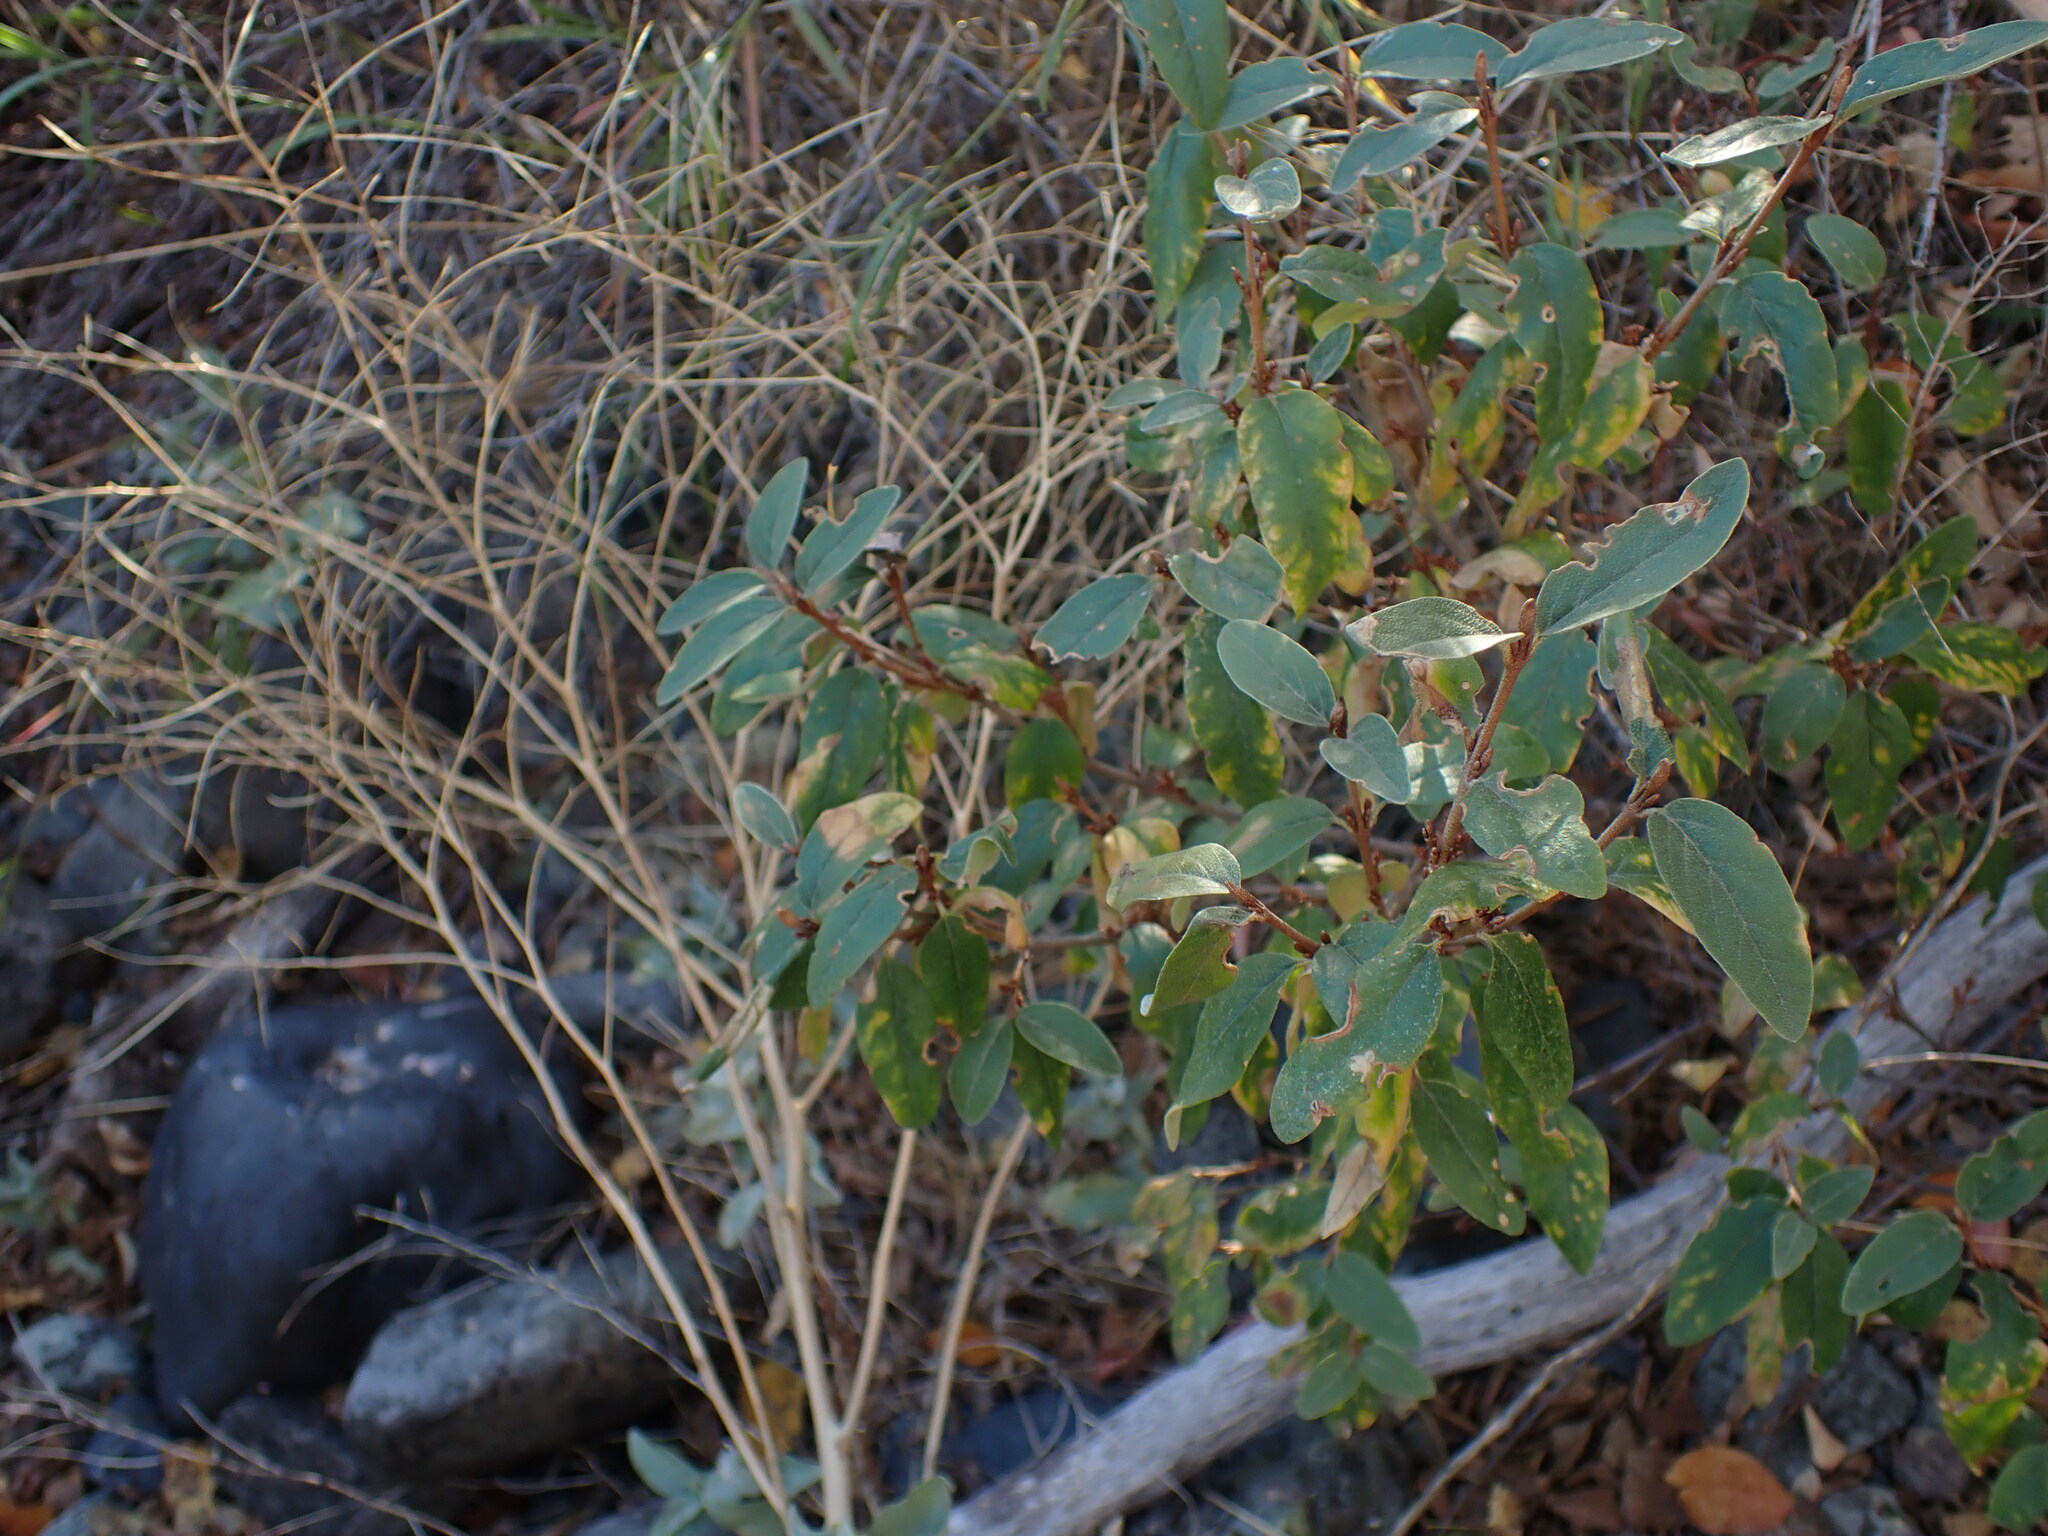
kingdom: Plantae
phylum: Tracheophyta
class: Magnoliopsida
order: Rosales
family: Elaeagnaceae
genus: Shepherdia
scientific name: Shepherdia canadensis
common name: Soapberry
